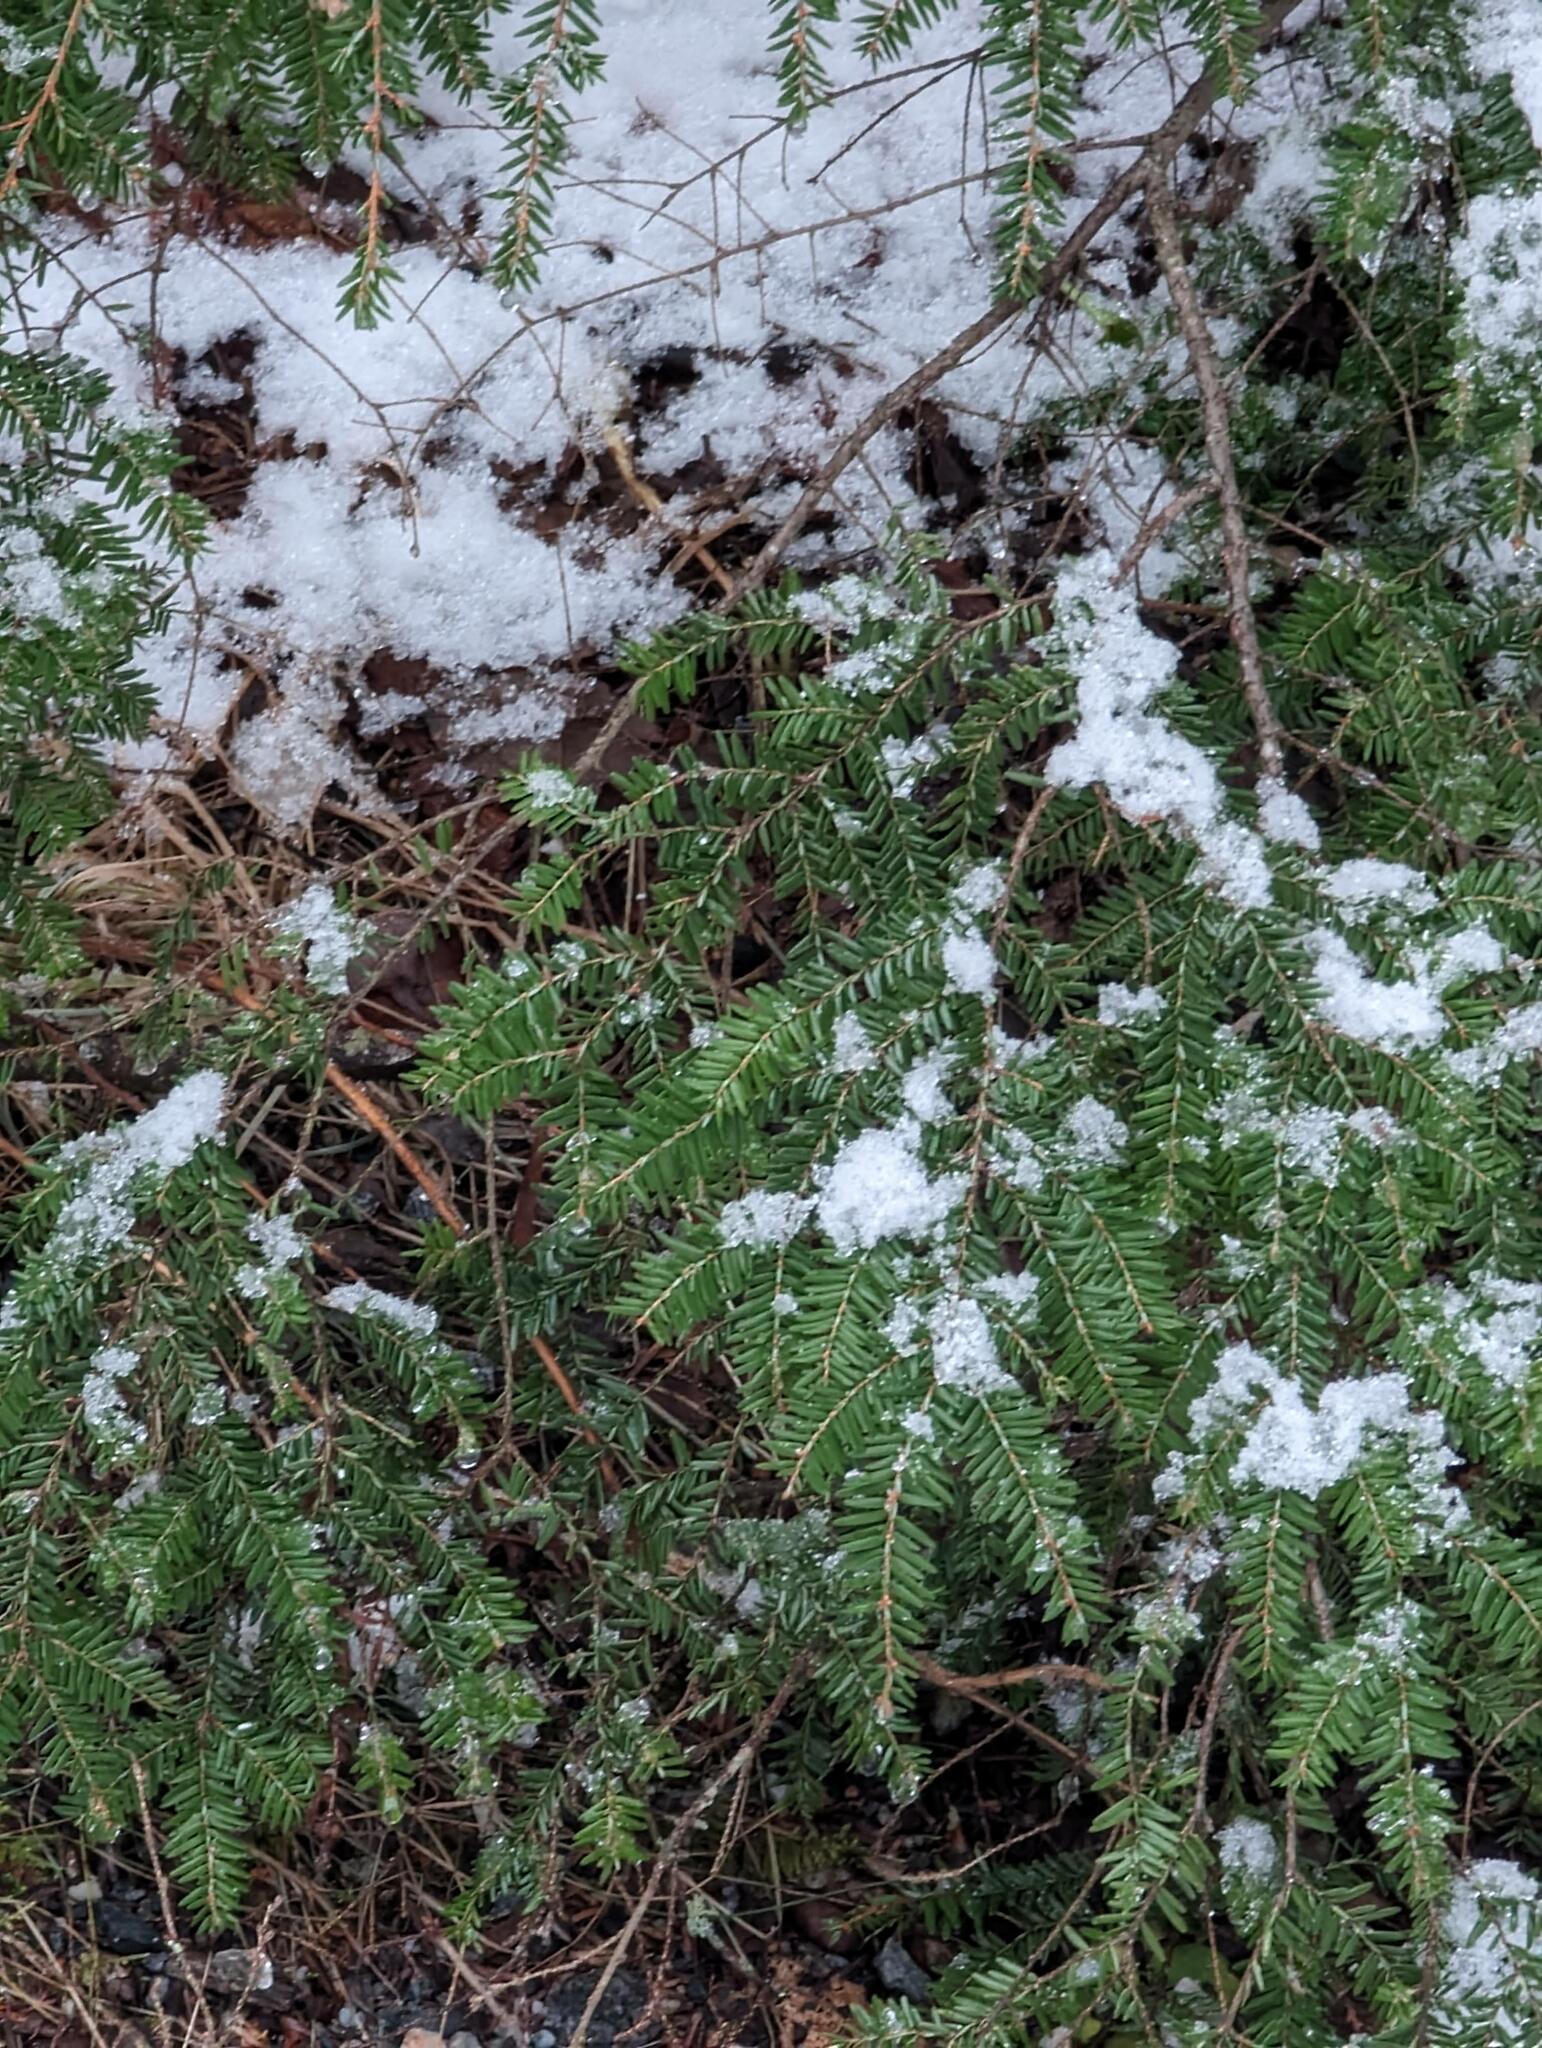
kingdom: Plantae
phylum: Tracheophyta
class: Pinopsida
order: Pinales
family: Pinaceae
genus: Tsuga
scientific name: Tsuga canadensis
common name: Eastern hemlock
